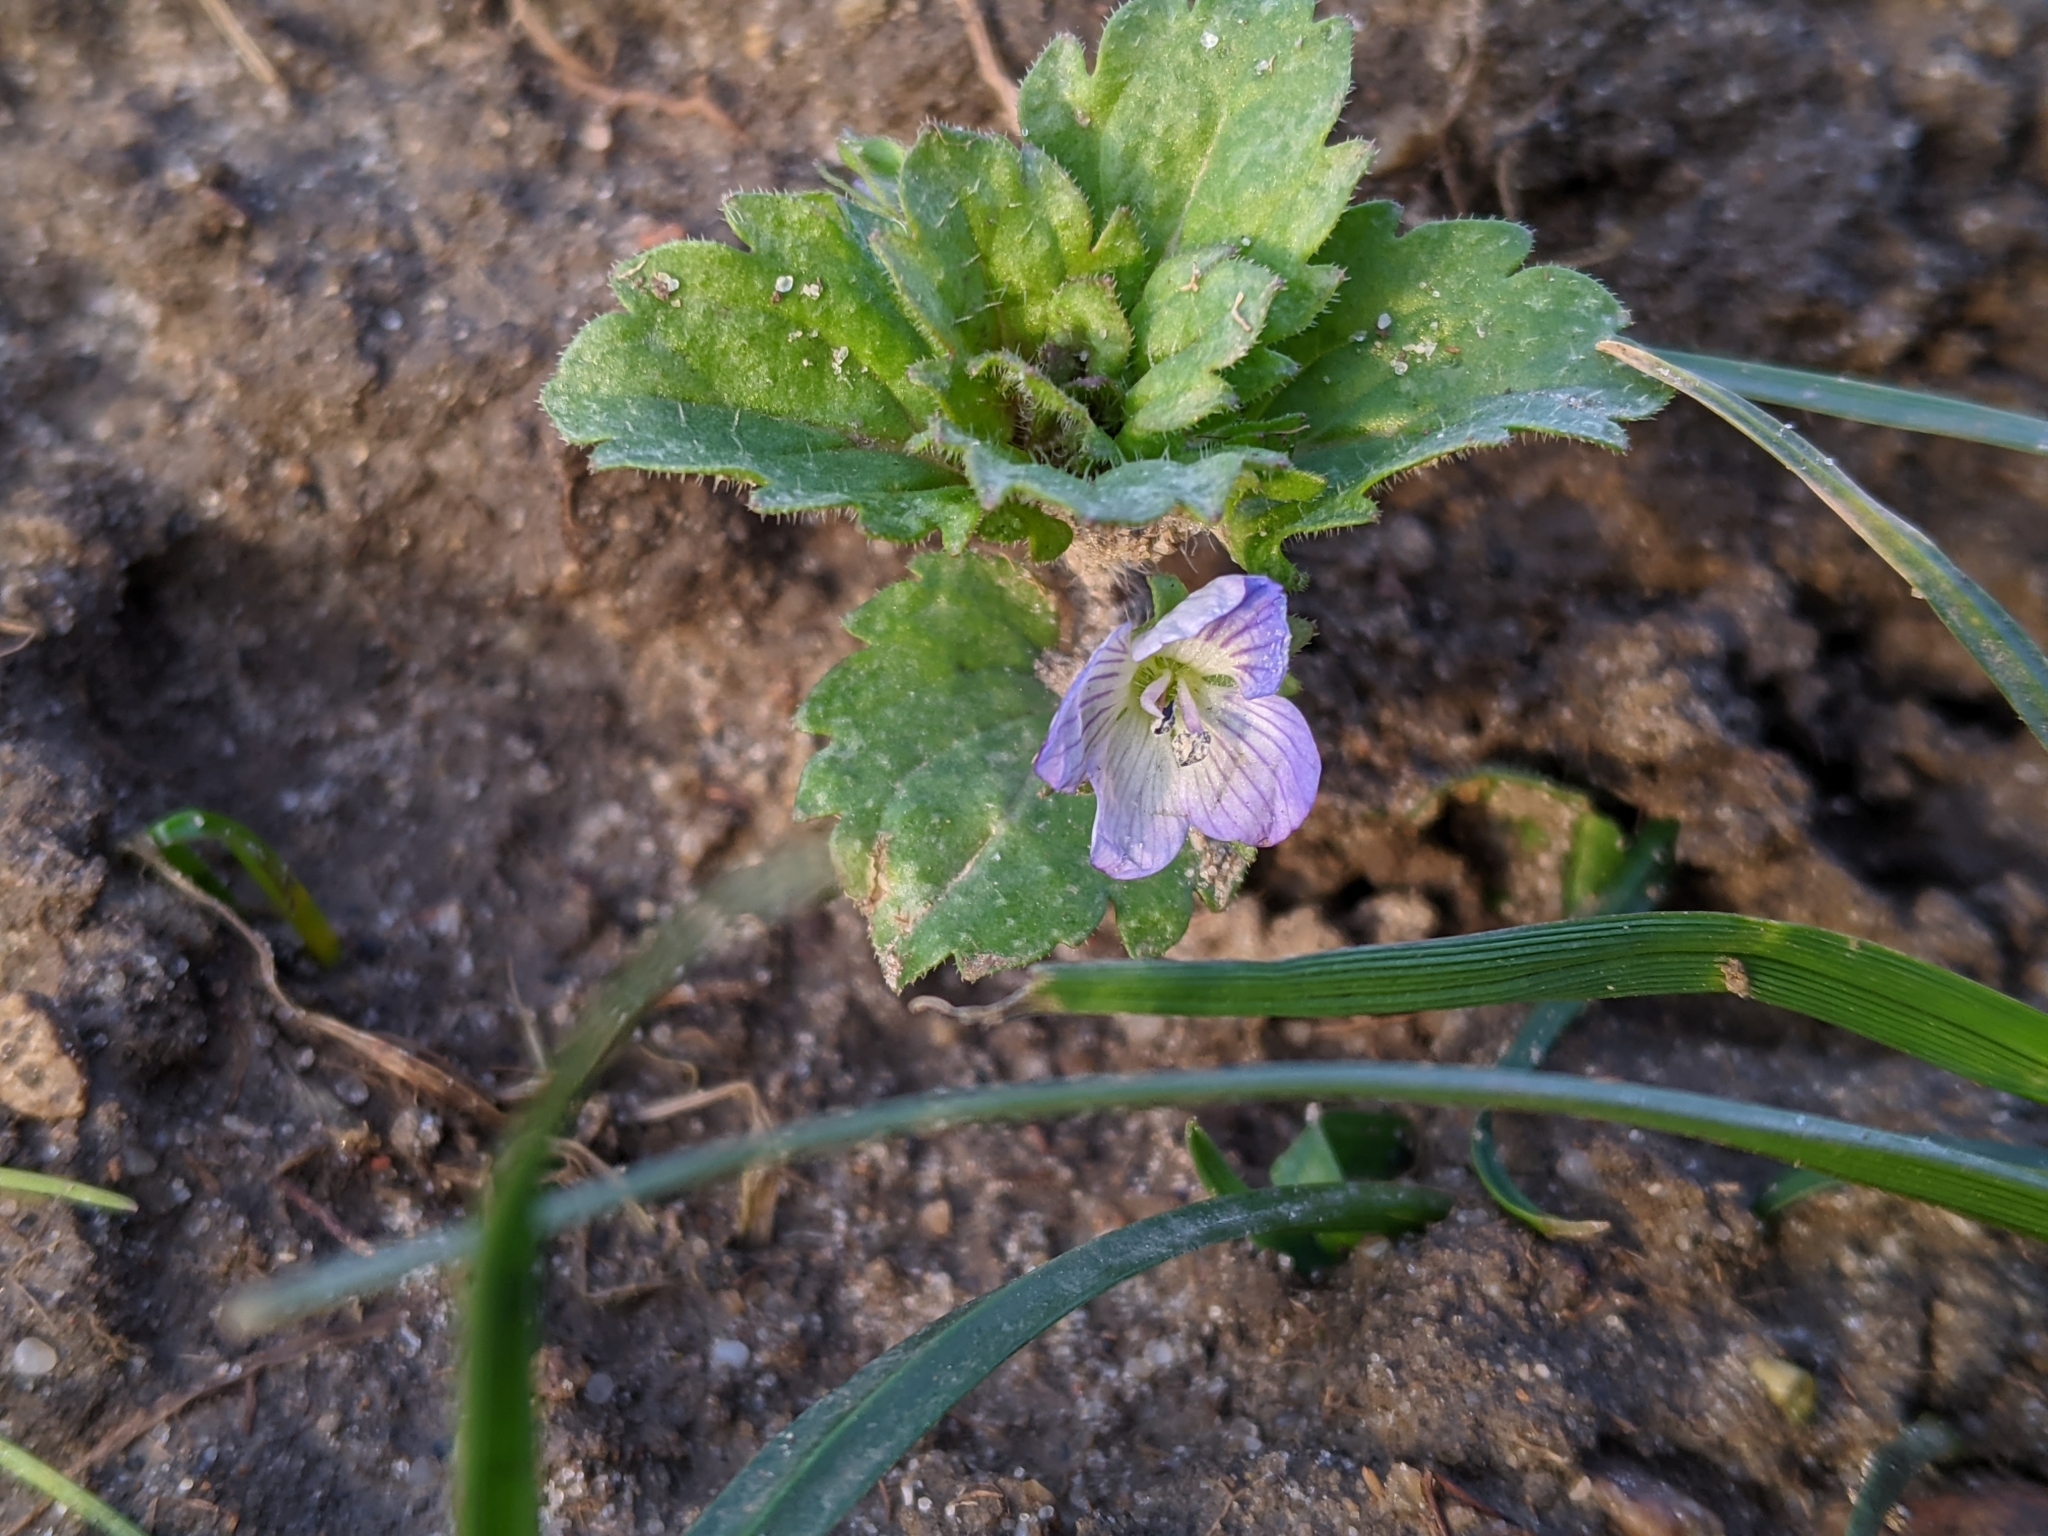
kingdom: Plantae
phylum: Tracheophyta
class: Magnoliopsida
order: Lamiales
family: Plantaginaceae
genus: Veronica
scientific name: Veronica persica
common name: Common field-speedwell
